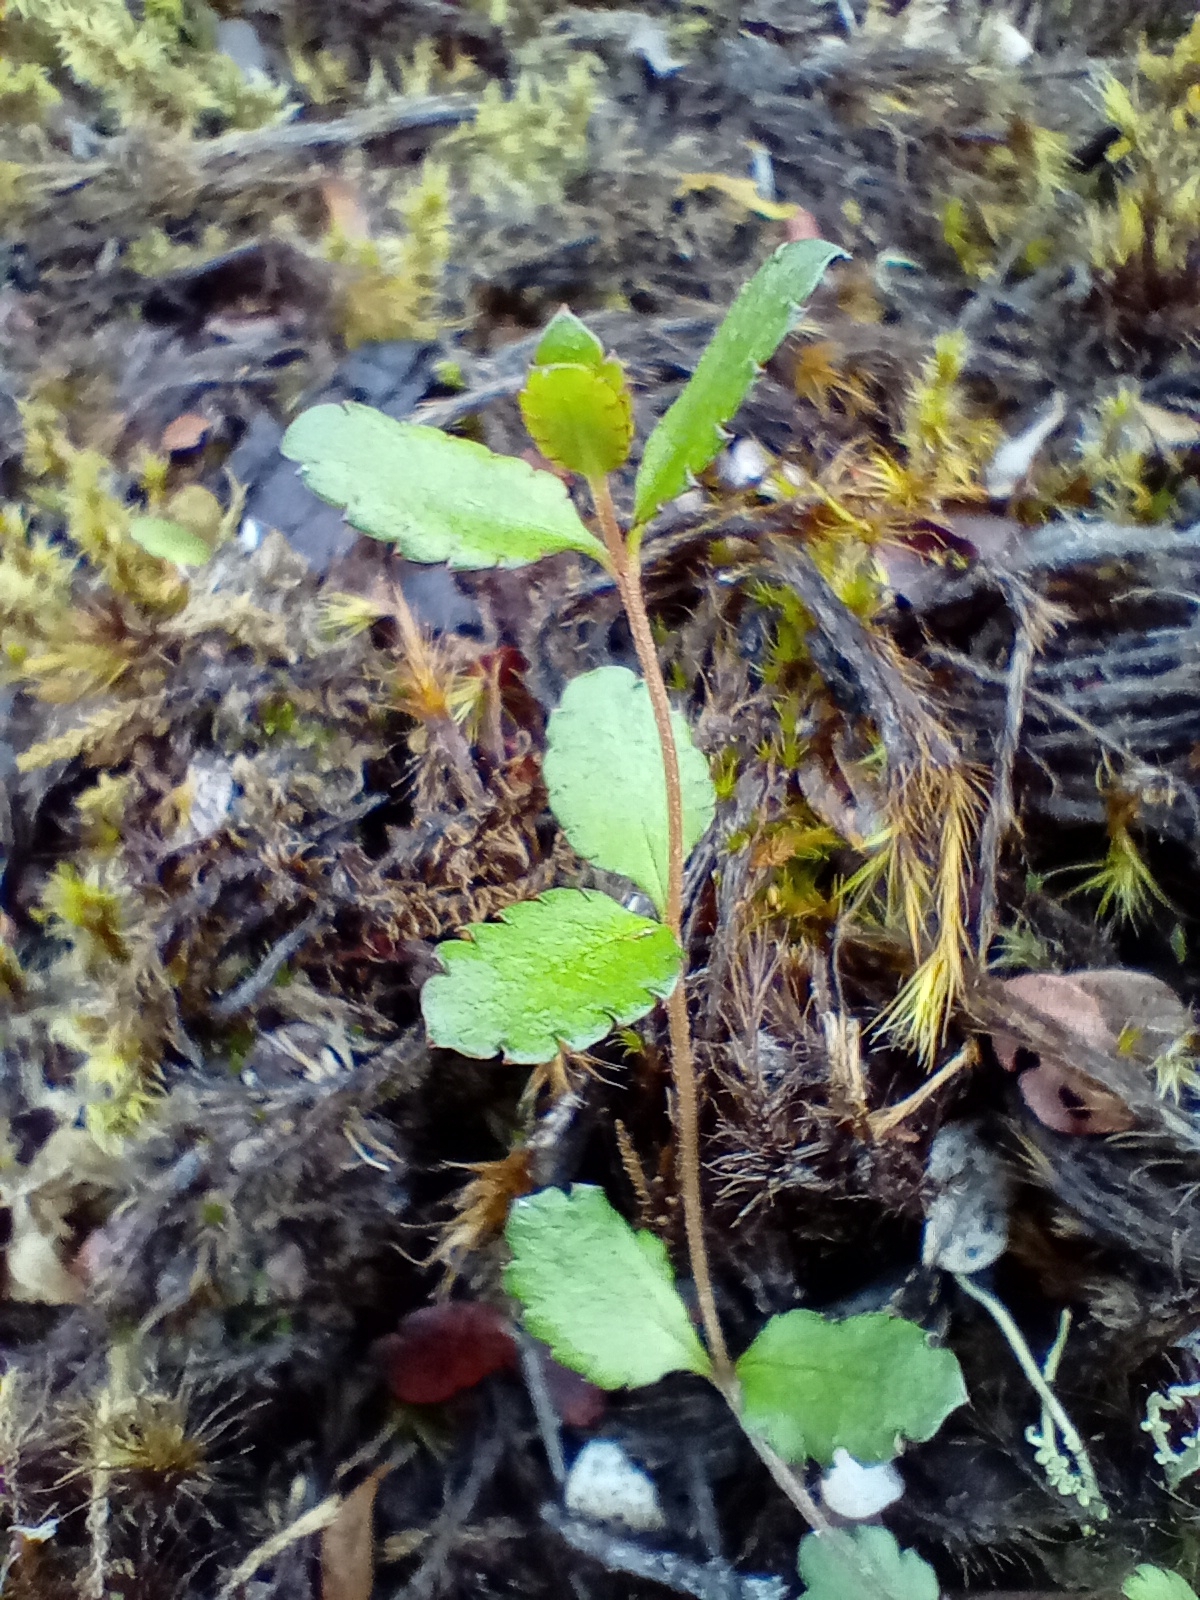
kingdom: Plantae
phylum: Tracheophyta
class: Magnoliopsida
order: Saxifragales
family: Haloragaceae
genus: Gonocarpus
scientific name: Gonocarpus aggregatus
